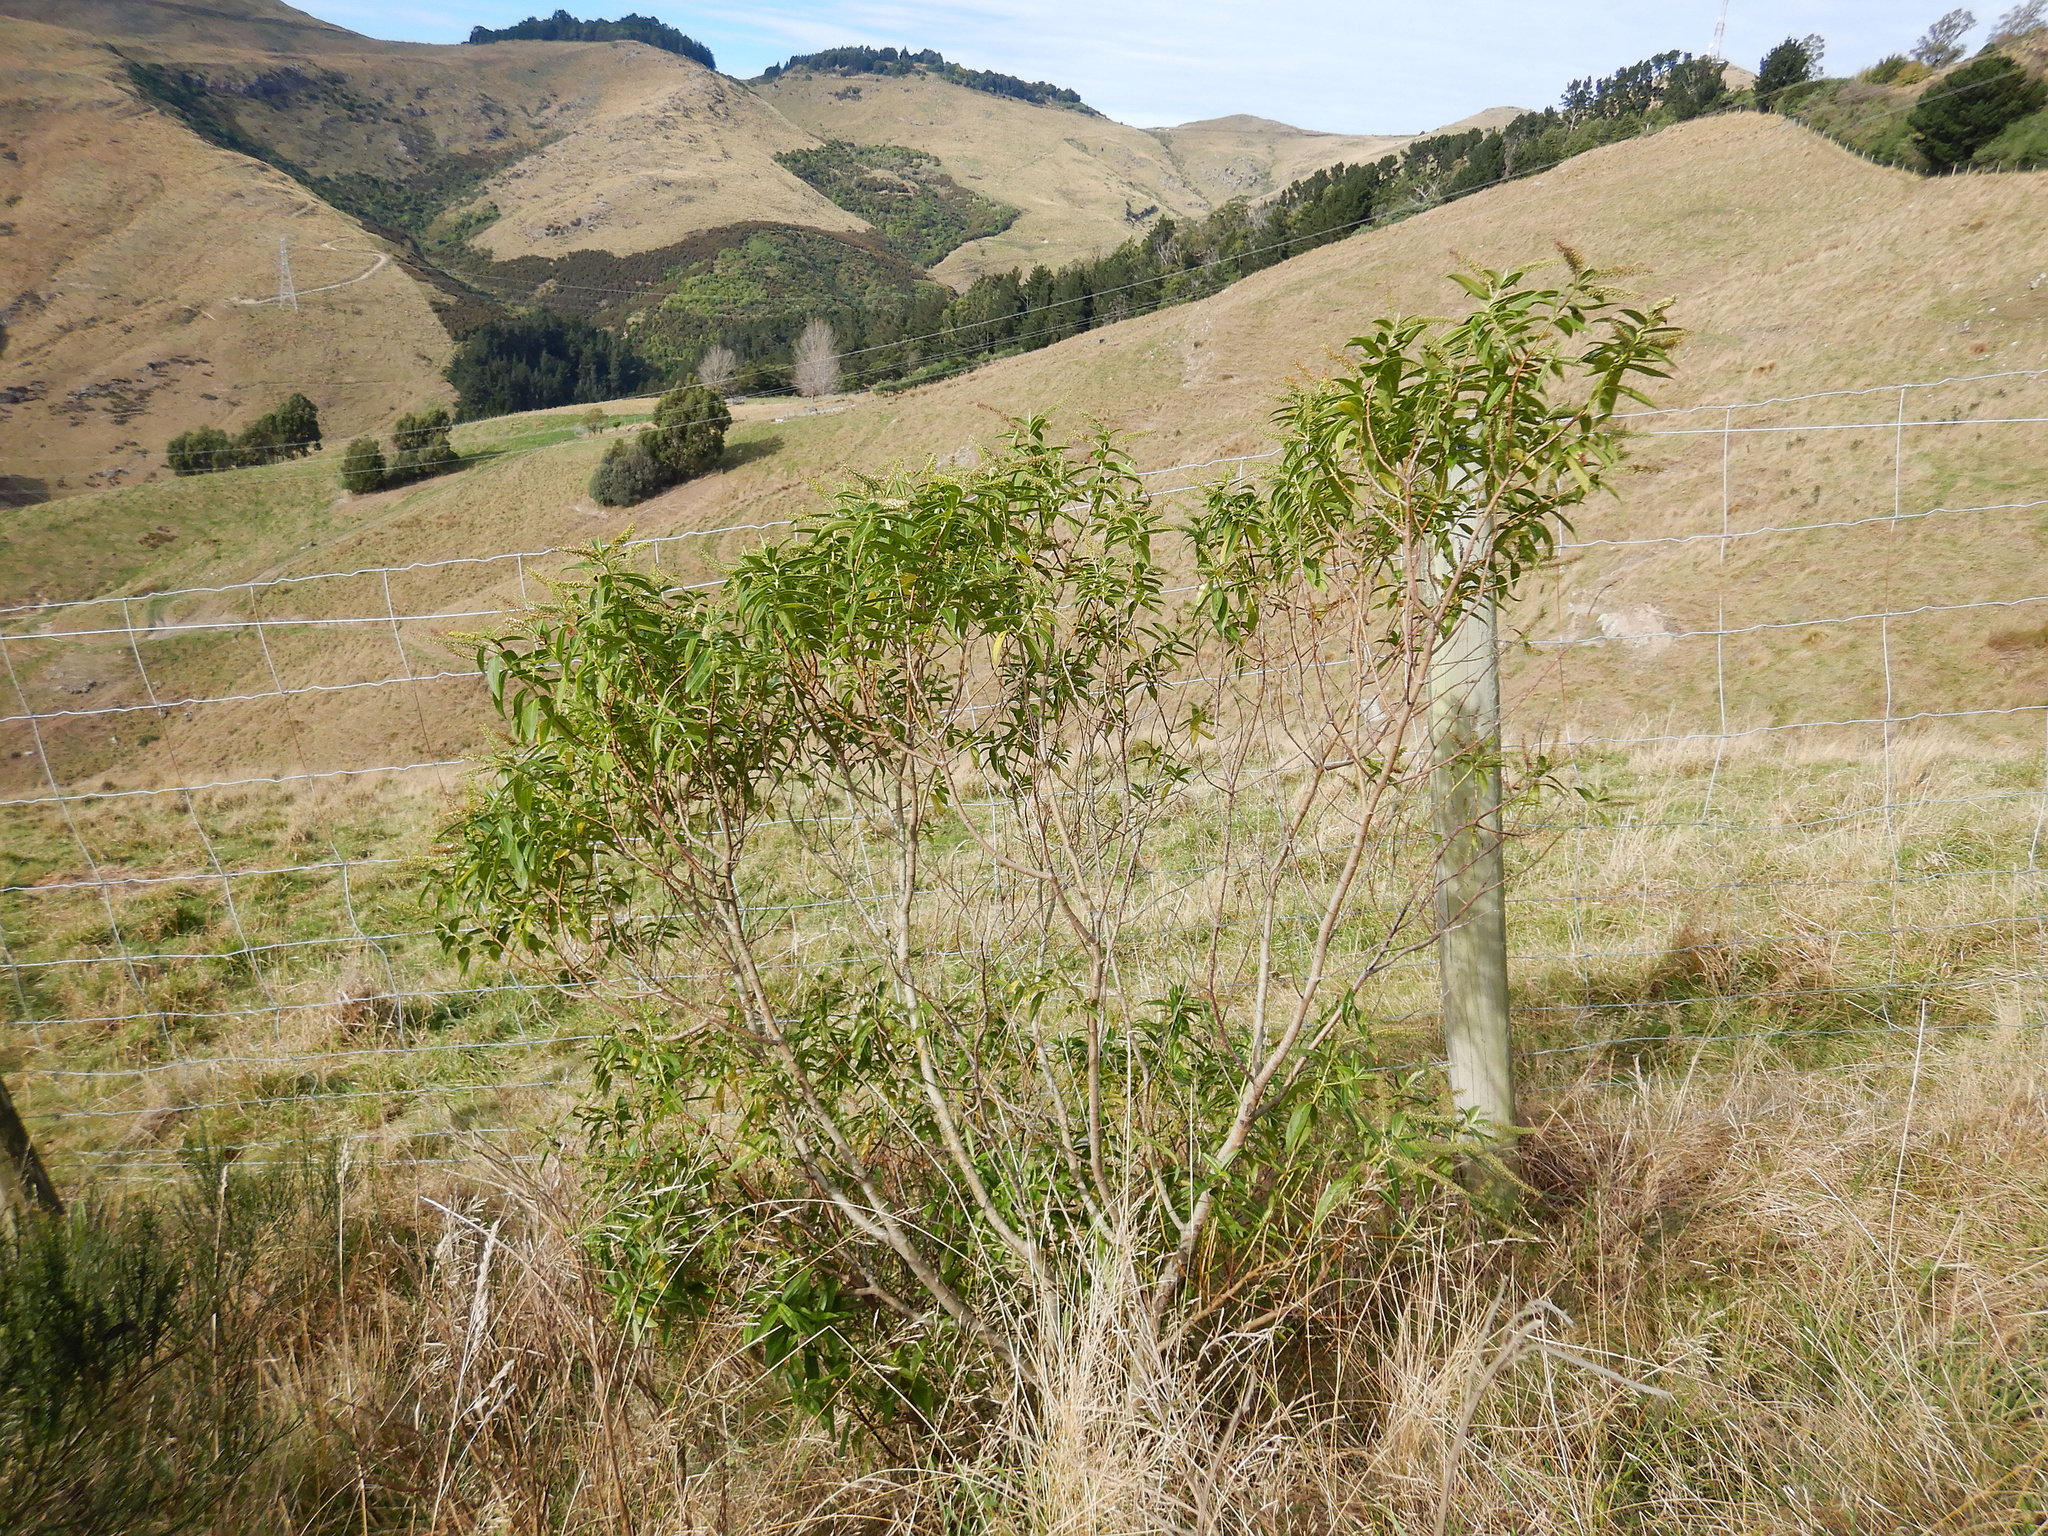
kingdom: Plantae
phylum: Tracheophyta
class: Magnoliopsida
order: Lamiales
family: Plantaginaceae
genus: Veronica
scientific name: Veronica salicifolia
